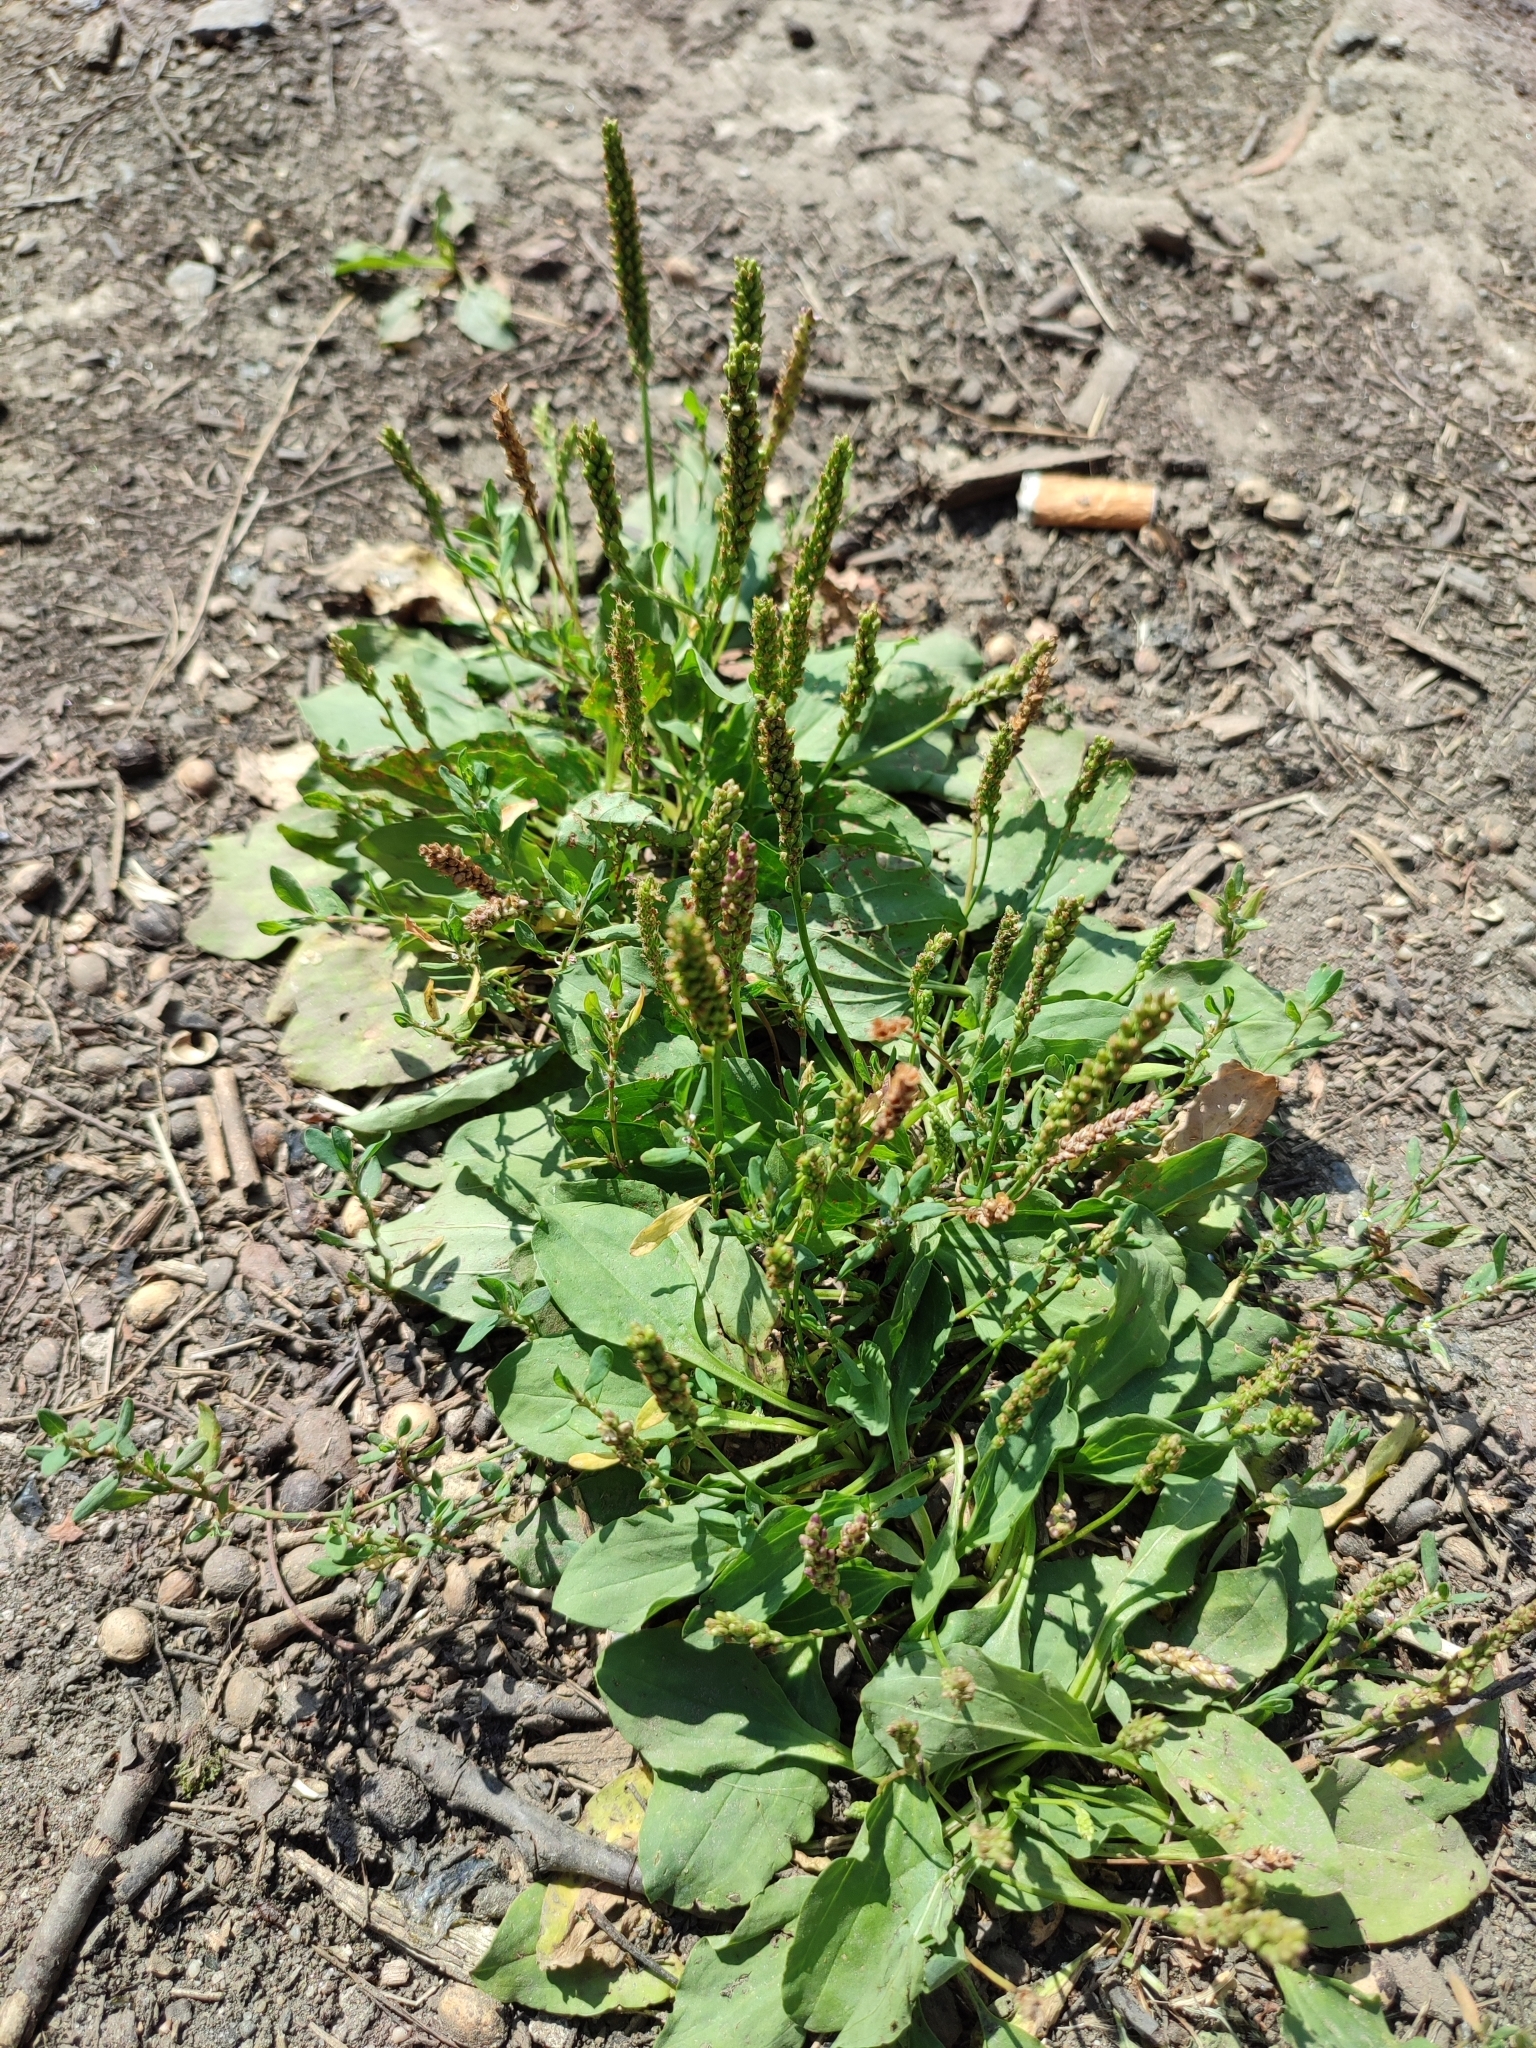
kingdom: Plantae
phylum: Tracheophyta
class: Magnoliopsida
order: Lamiales
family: Plantaginaceae
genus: Plantago
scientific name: Plantago uliginosa
